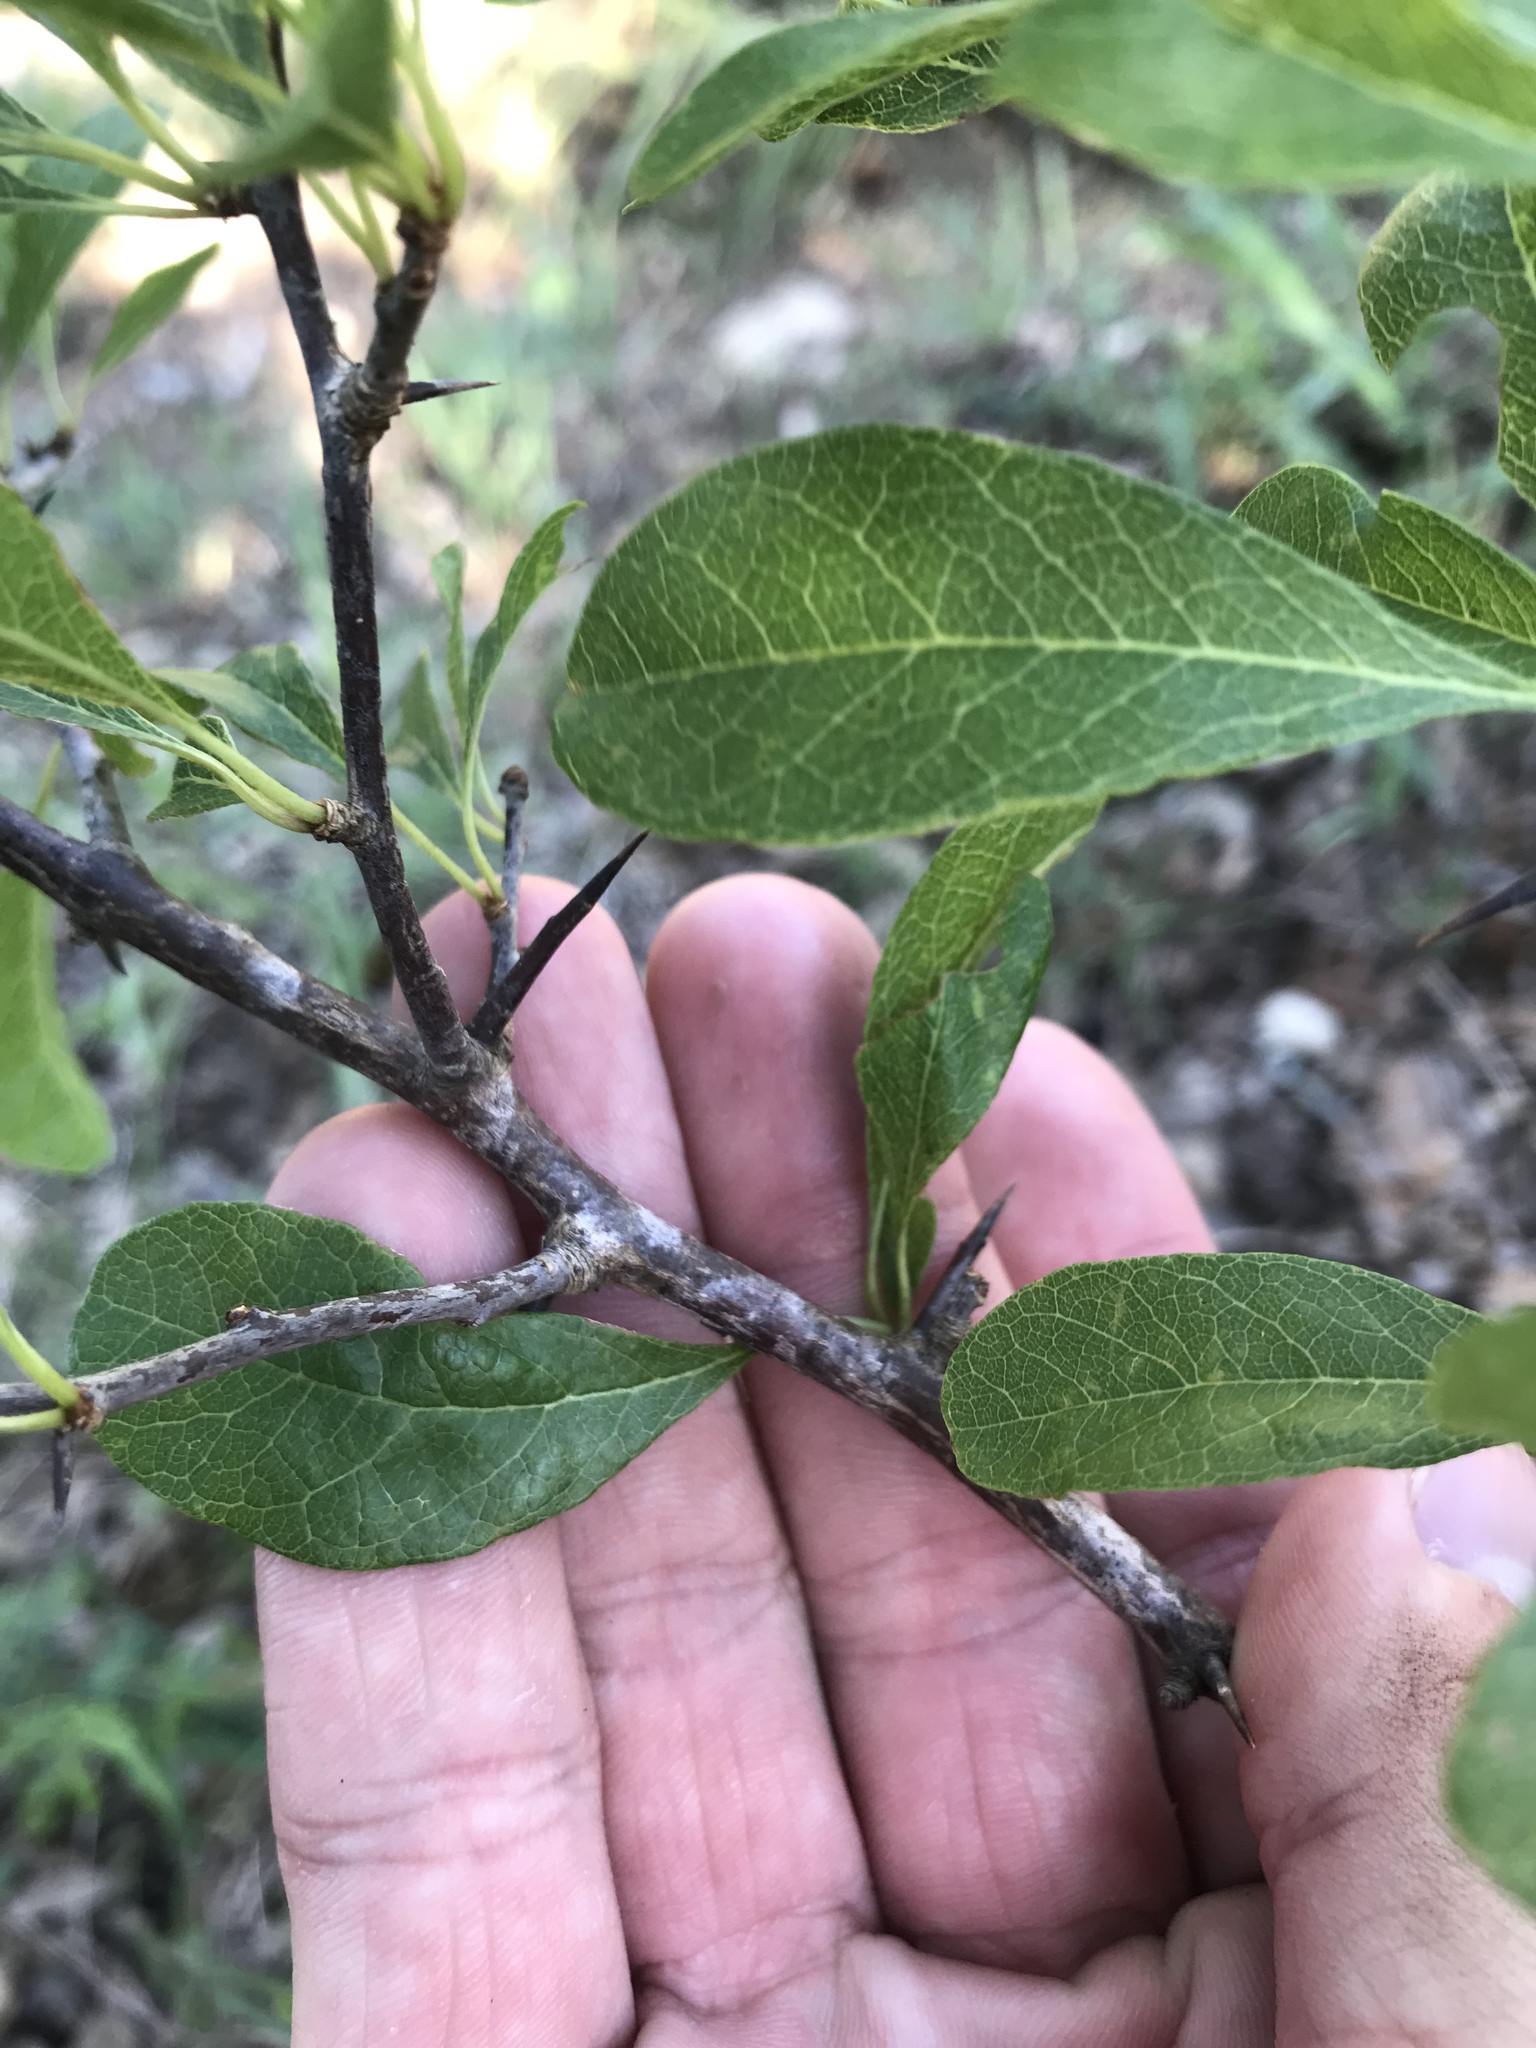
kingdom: Plantae
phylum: Tracheophyta
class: Magnoliopsida
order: Ericales
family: Sapotaceae
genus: Sideroxylon
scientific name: Sideroxylon lanuginosum
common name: Chittamwood
